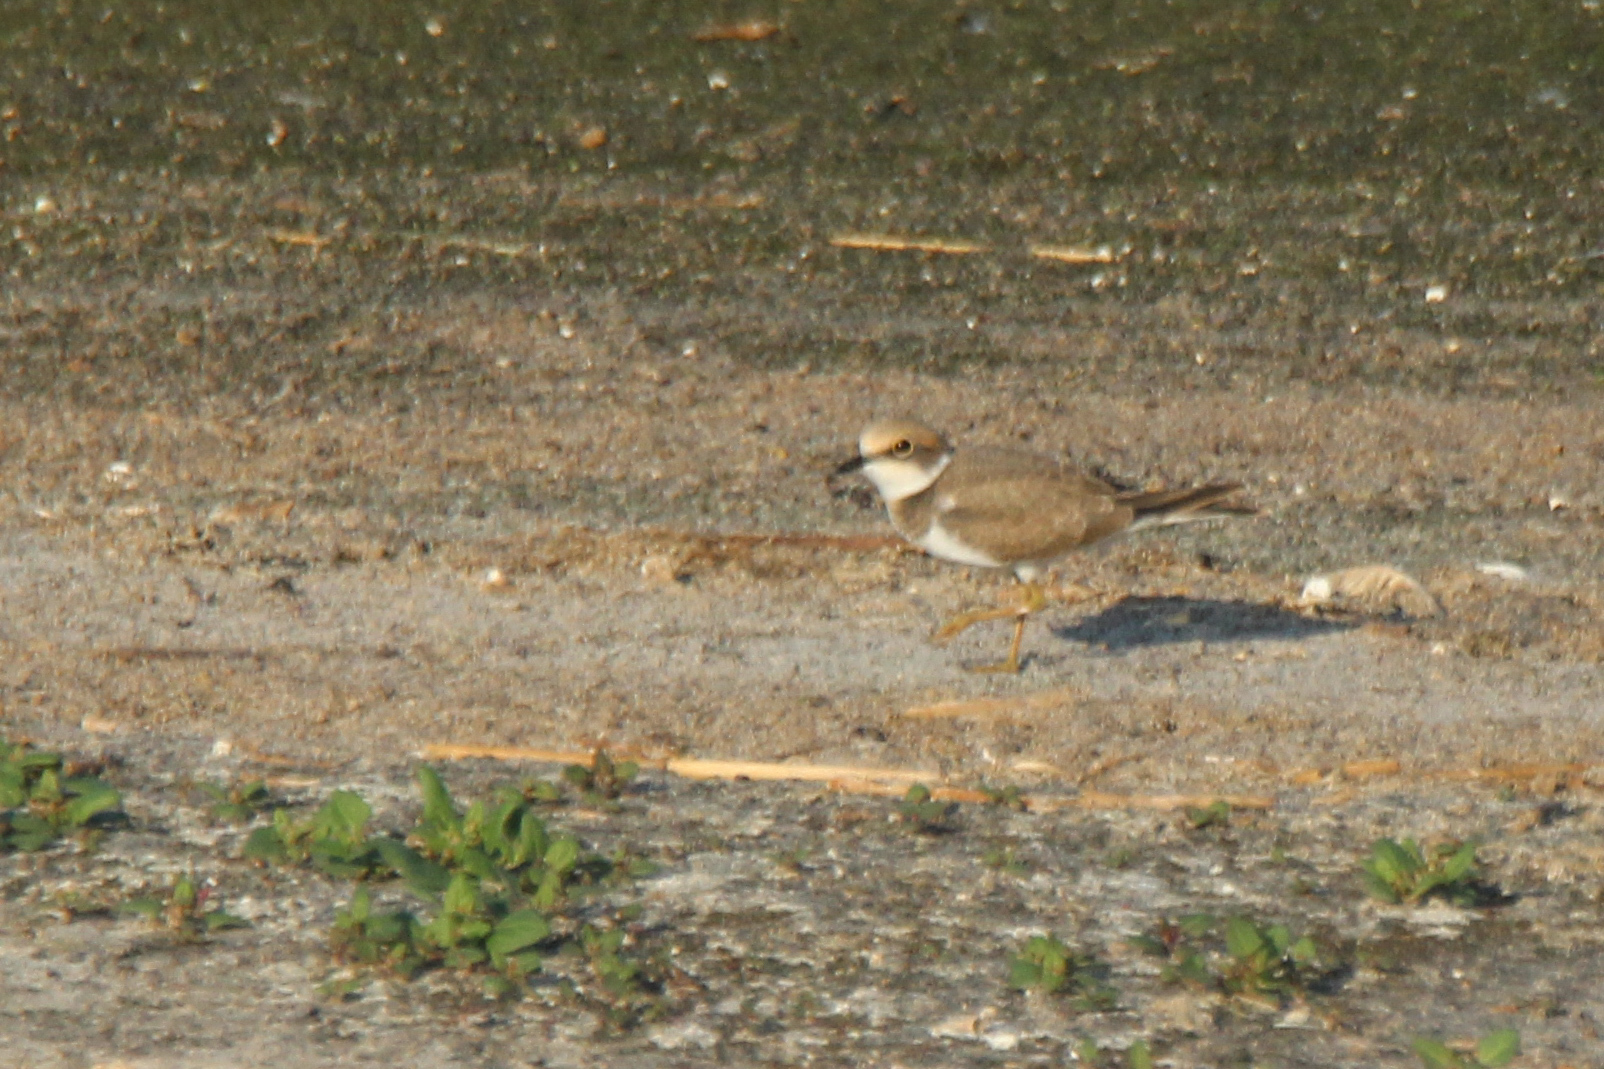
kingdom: Animalia
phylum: Chordata
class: Aves
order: Charadriiformes
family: Charadriidae
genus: Charadrius
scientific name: Charadrius dubius
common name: Little ringed plover
